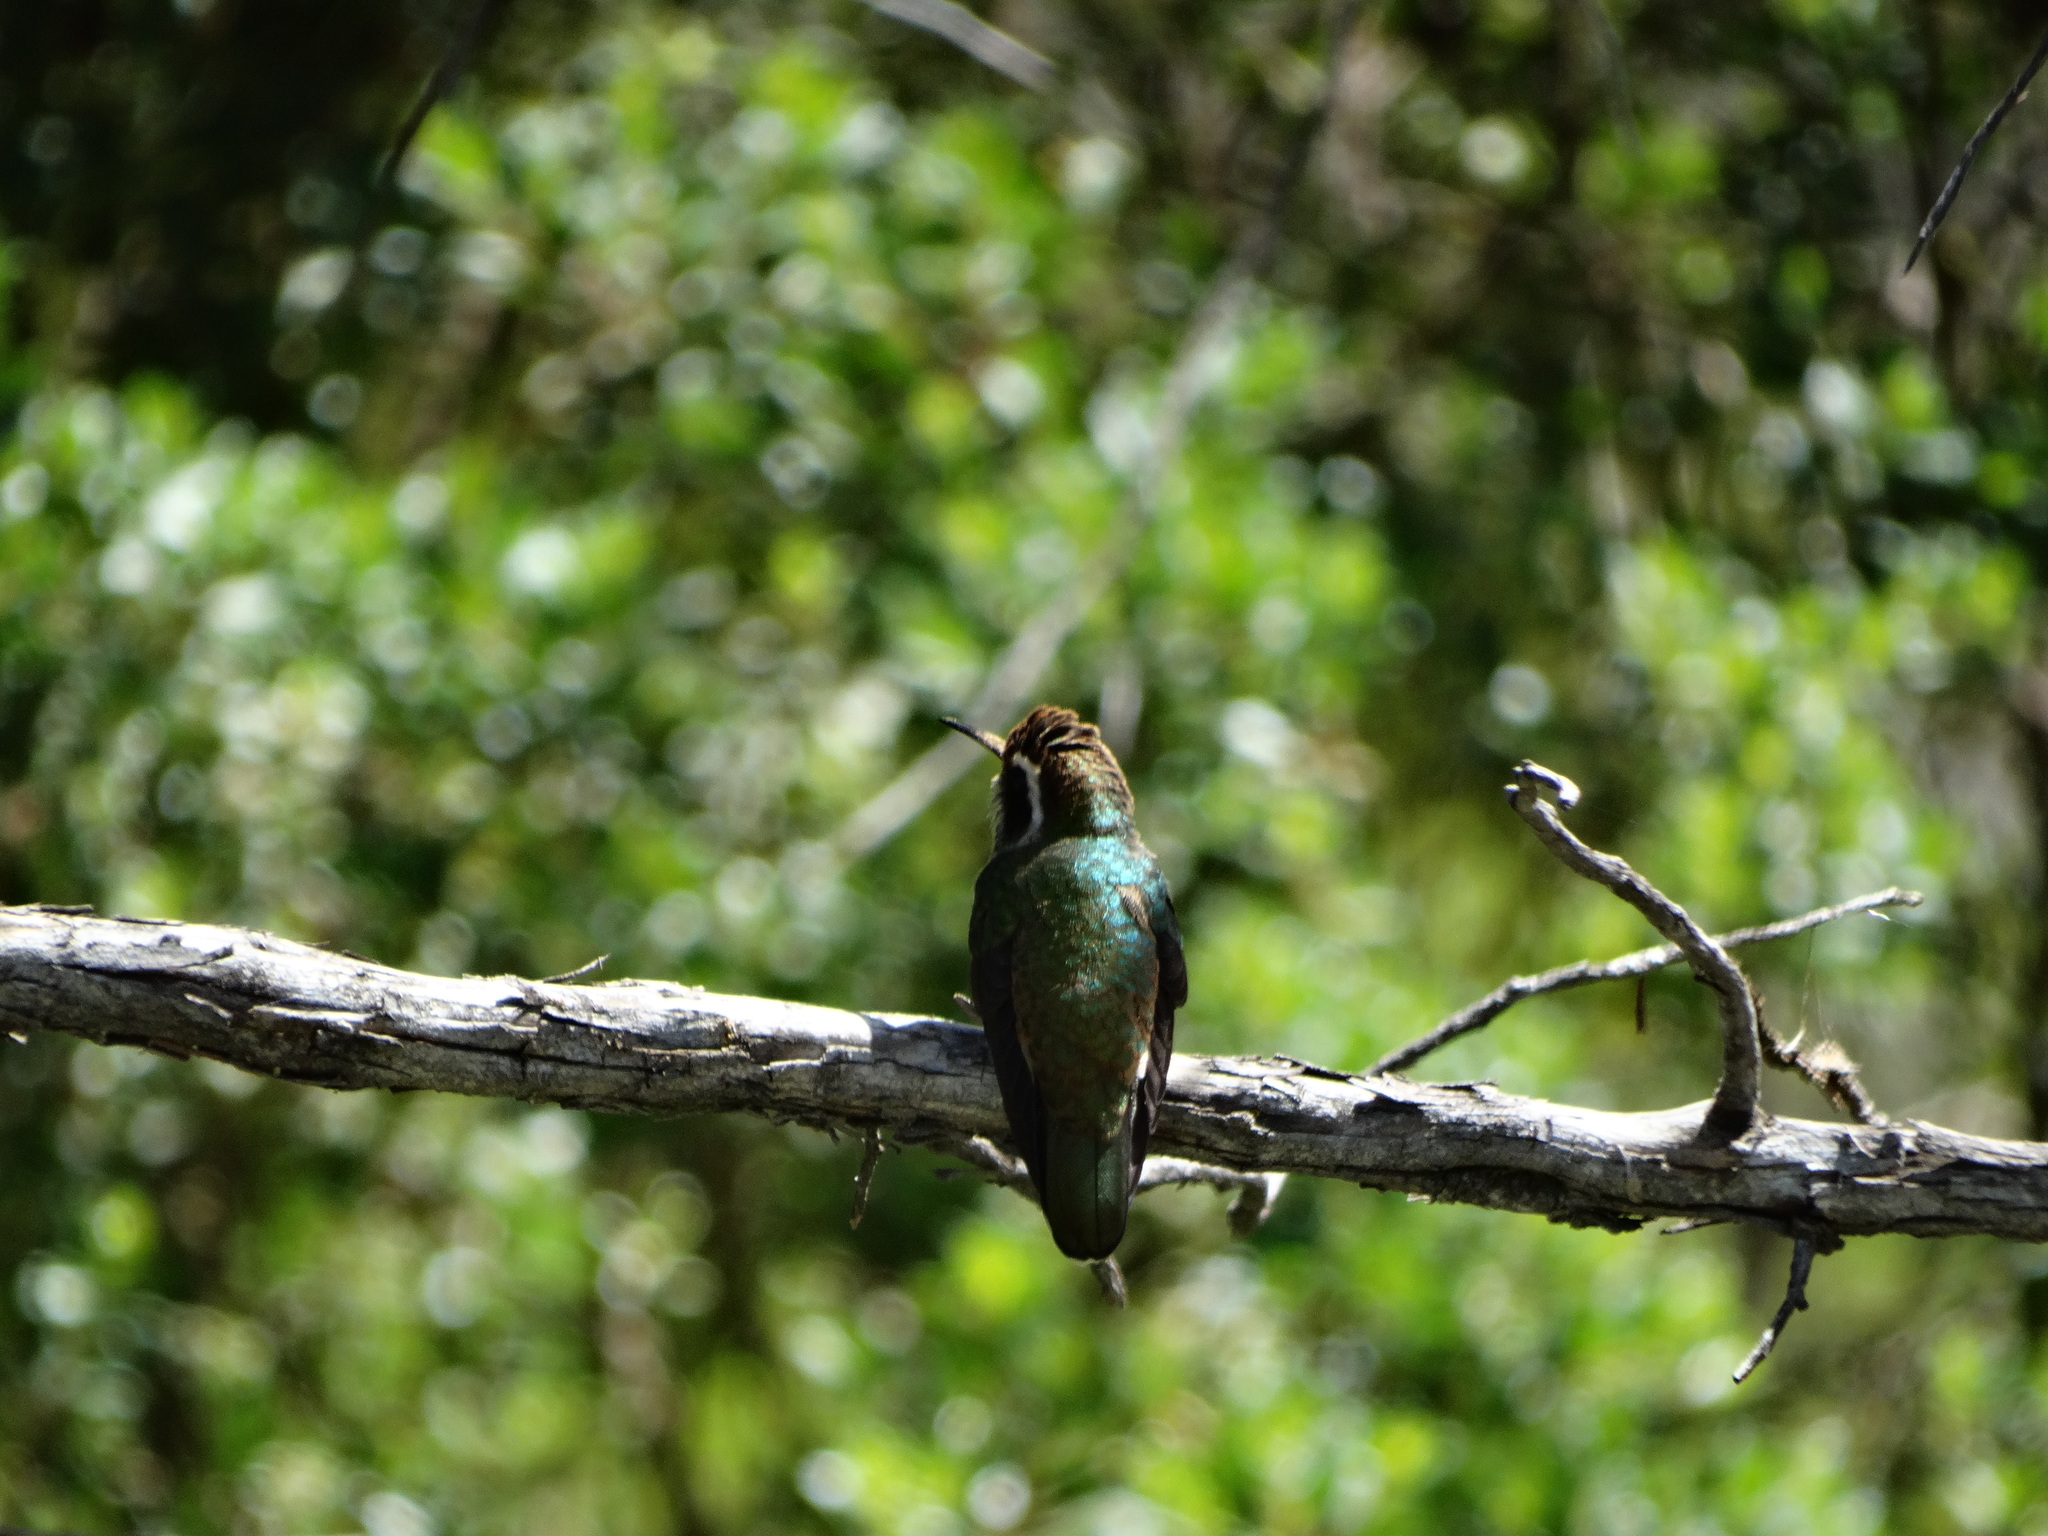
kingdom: Animalia
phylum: Chordata
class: Aves
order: Apodiformes
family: Trochilidae
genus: Basilinna
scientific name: Basilinna leucotis
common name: White-eared hummingbird
